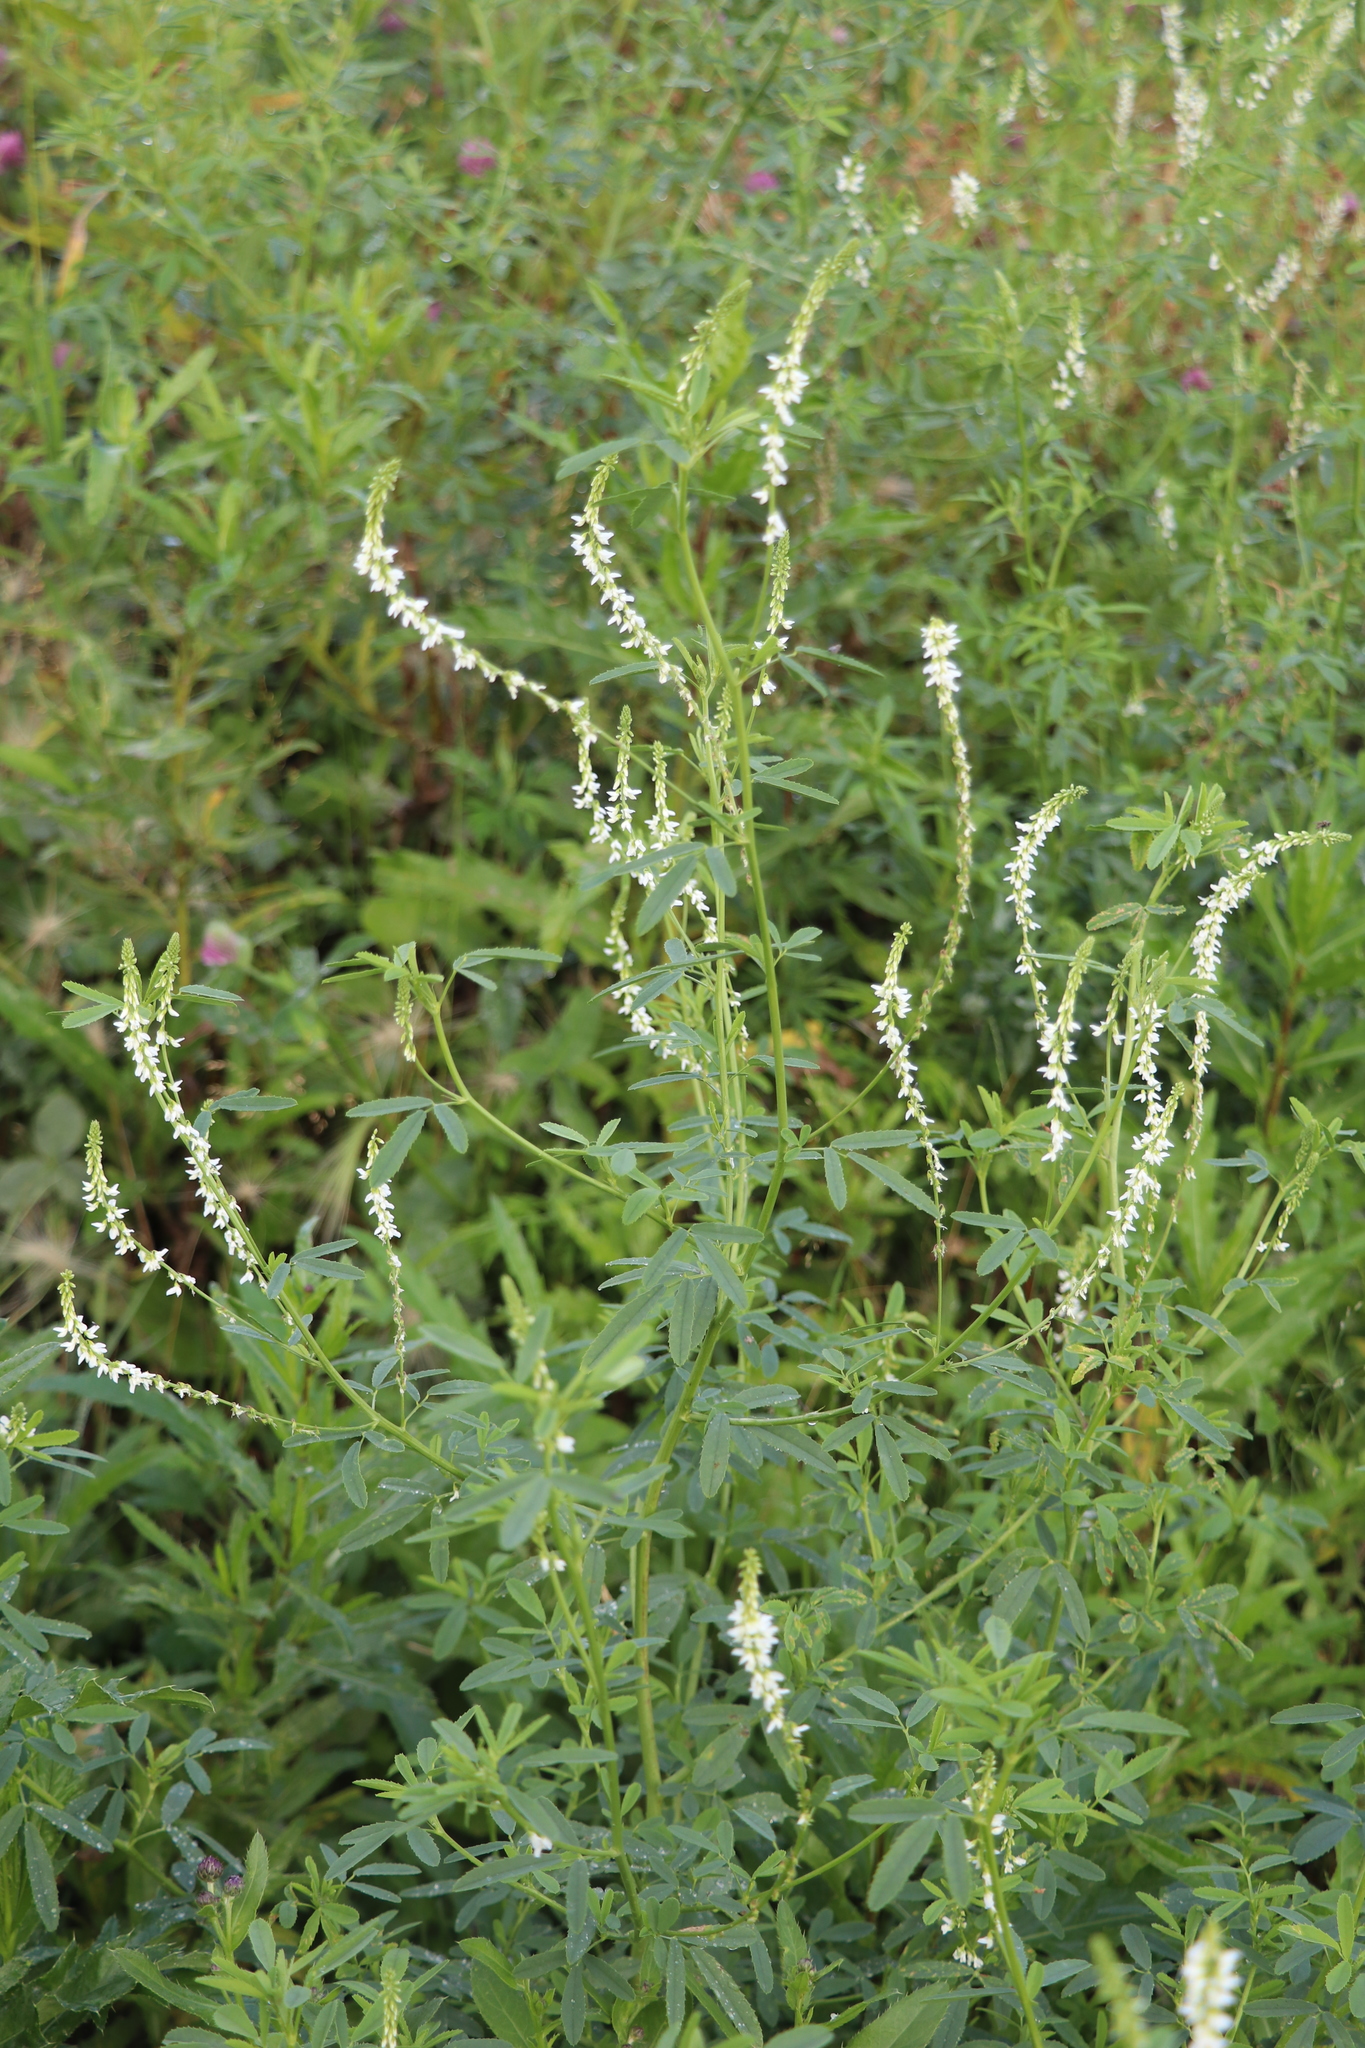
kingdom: Plantae
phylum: Tracheophyta
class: Magnoliopsida
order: Fabales
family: Fabaceae
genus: Melilotus
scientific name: Melilotus albus
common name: White melilot
